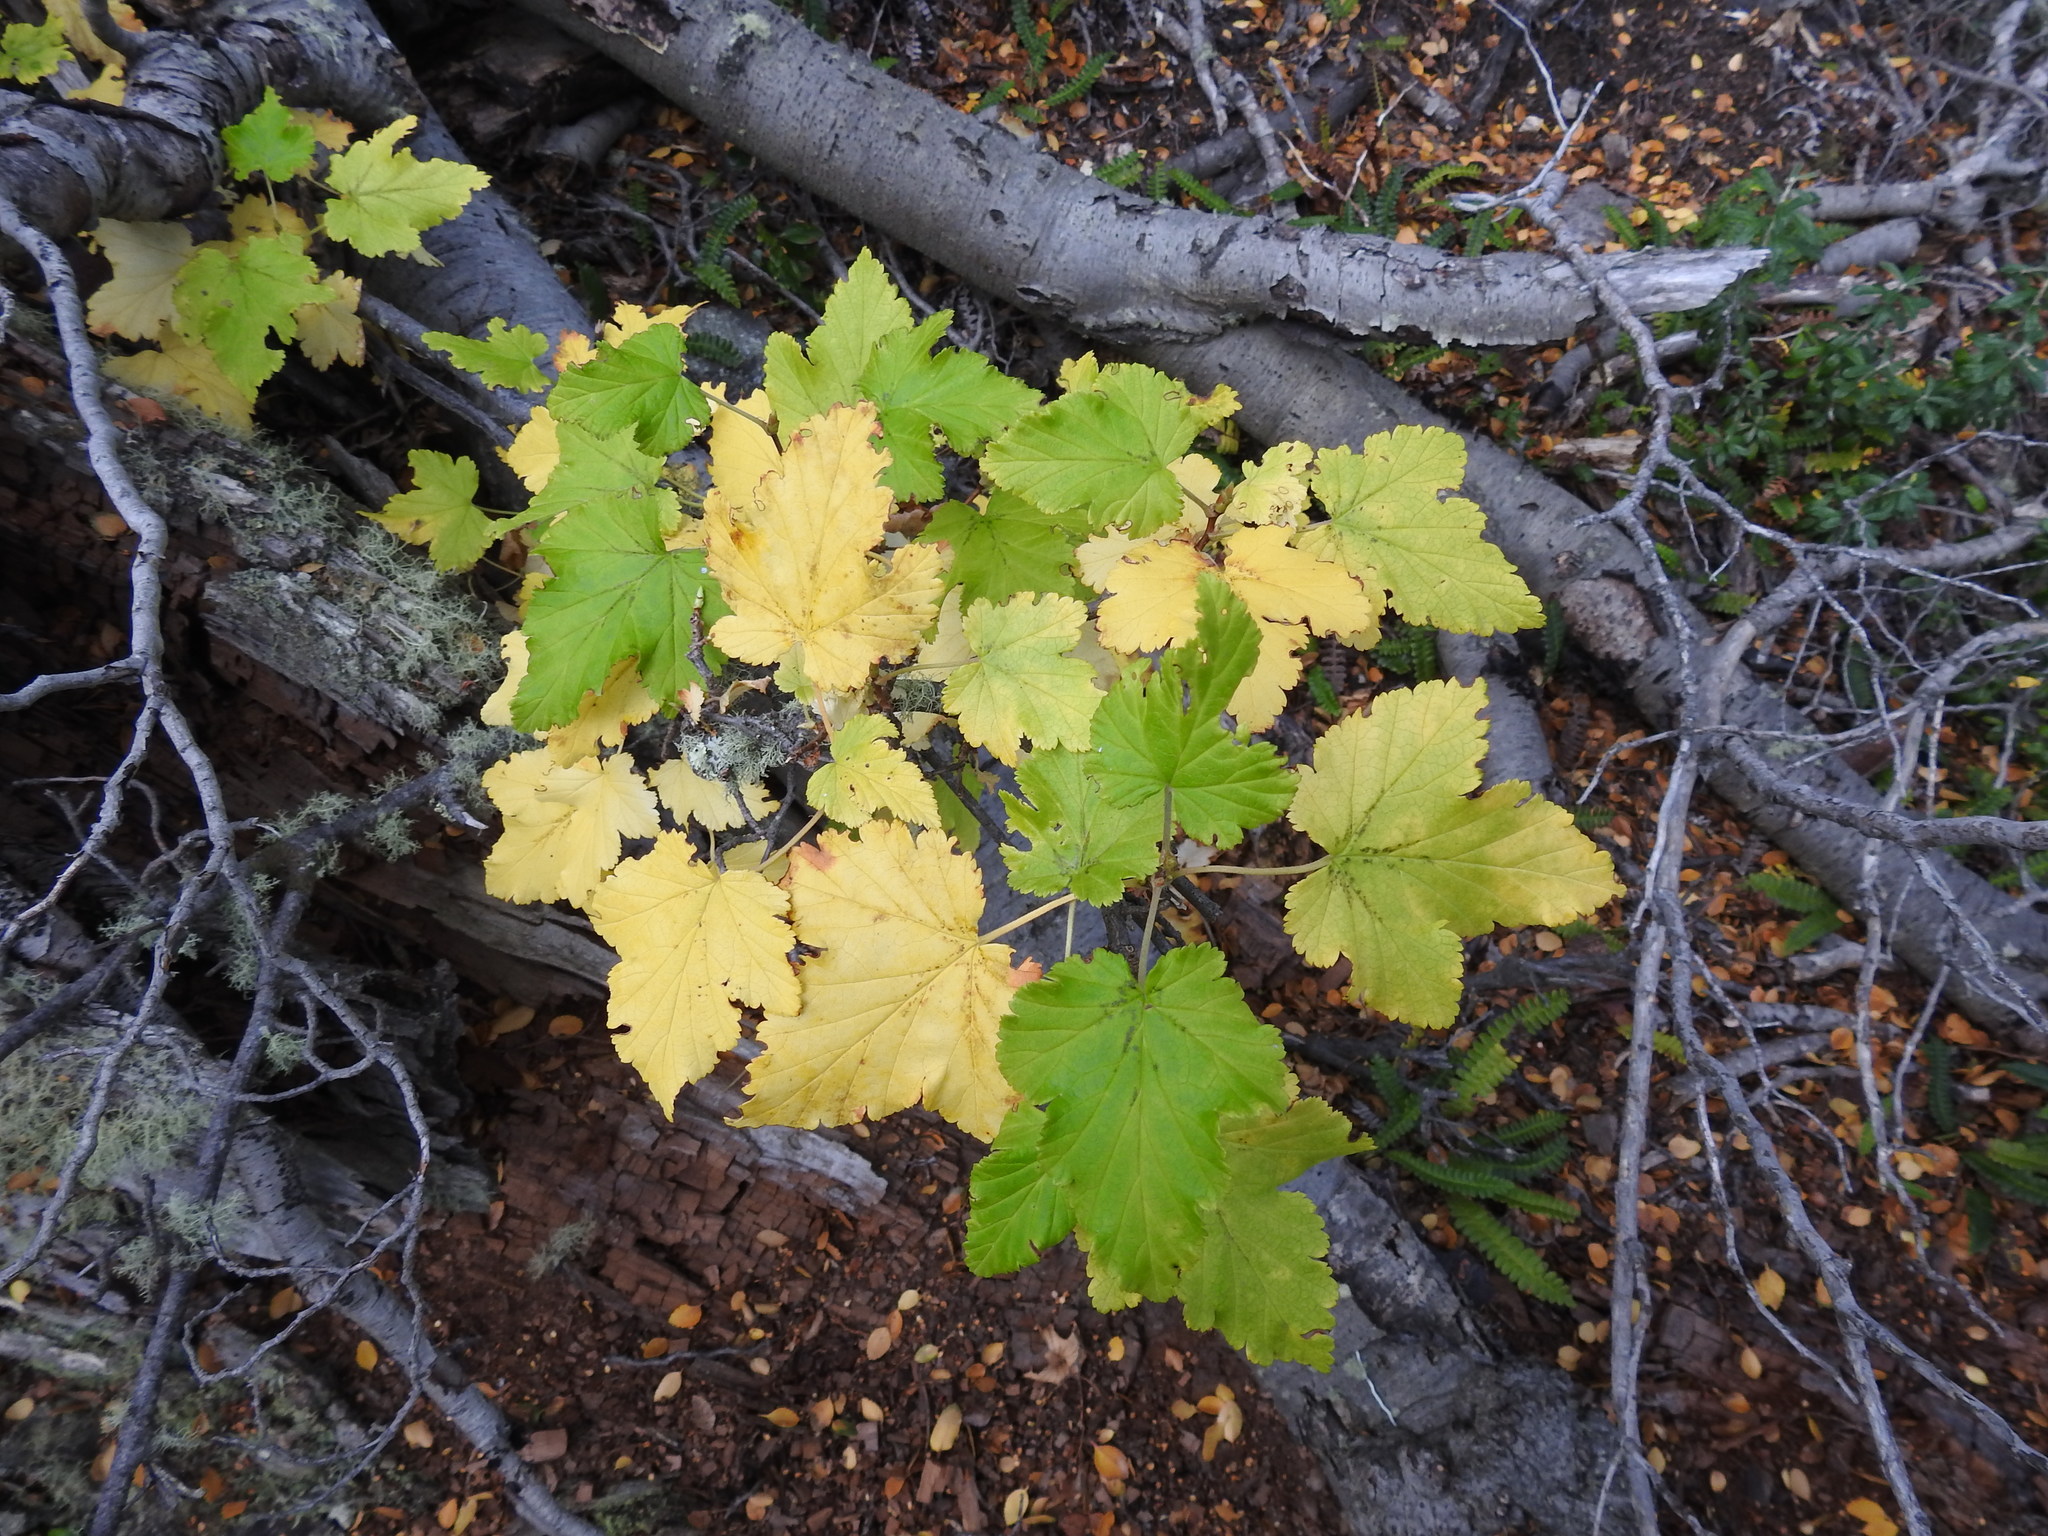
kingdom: Plantae
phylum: Tracheophyta
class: Magnoliopsida
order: Saxifragales
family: Grossulariaceae
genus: Ribes
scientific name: Ribes magellanicum
